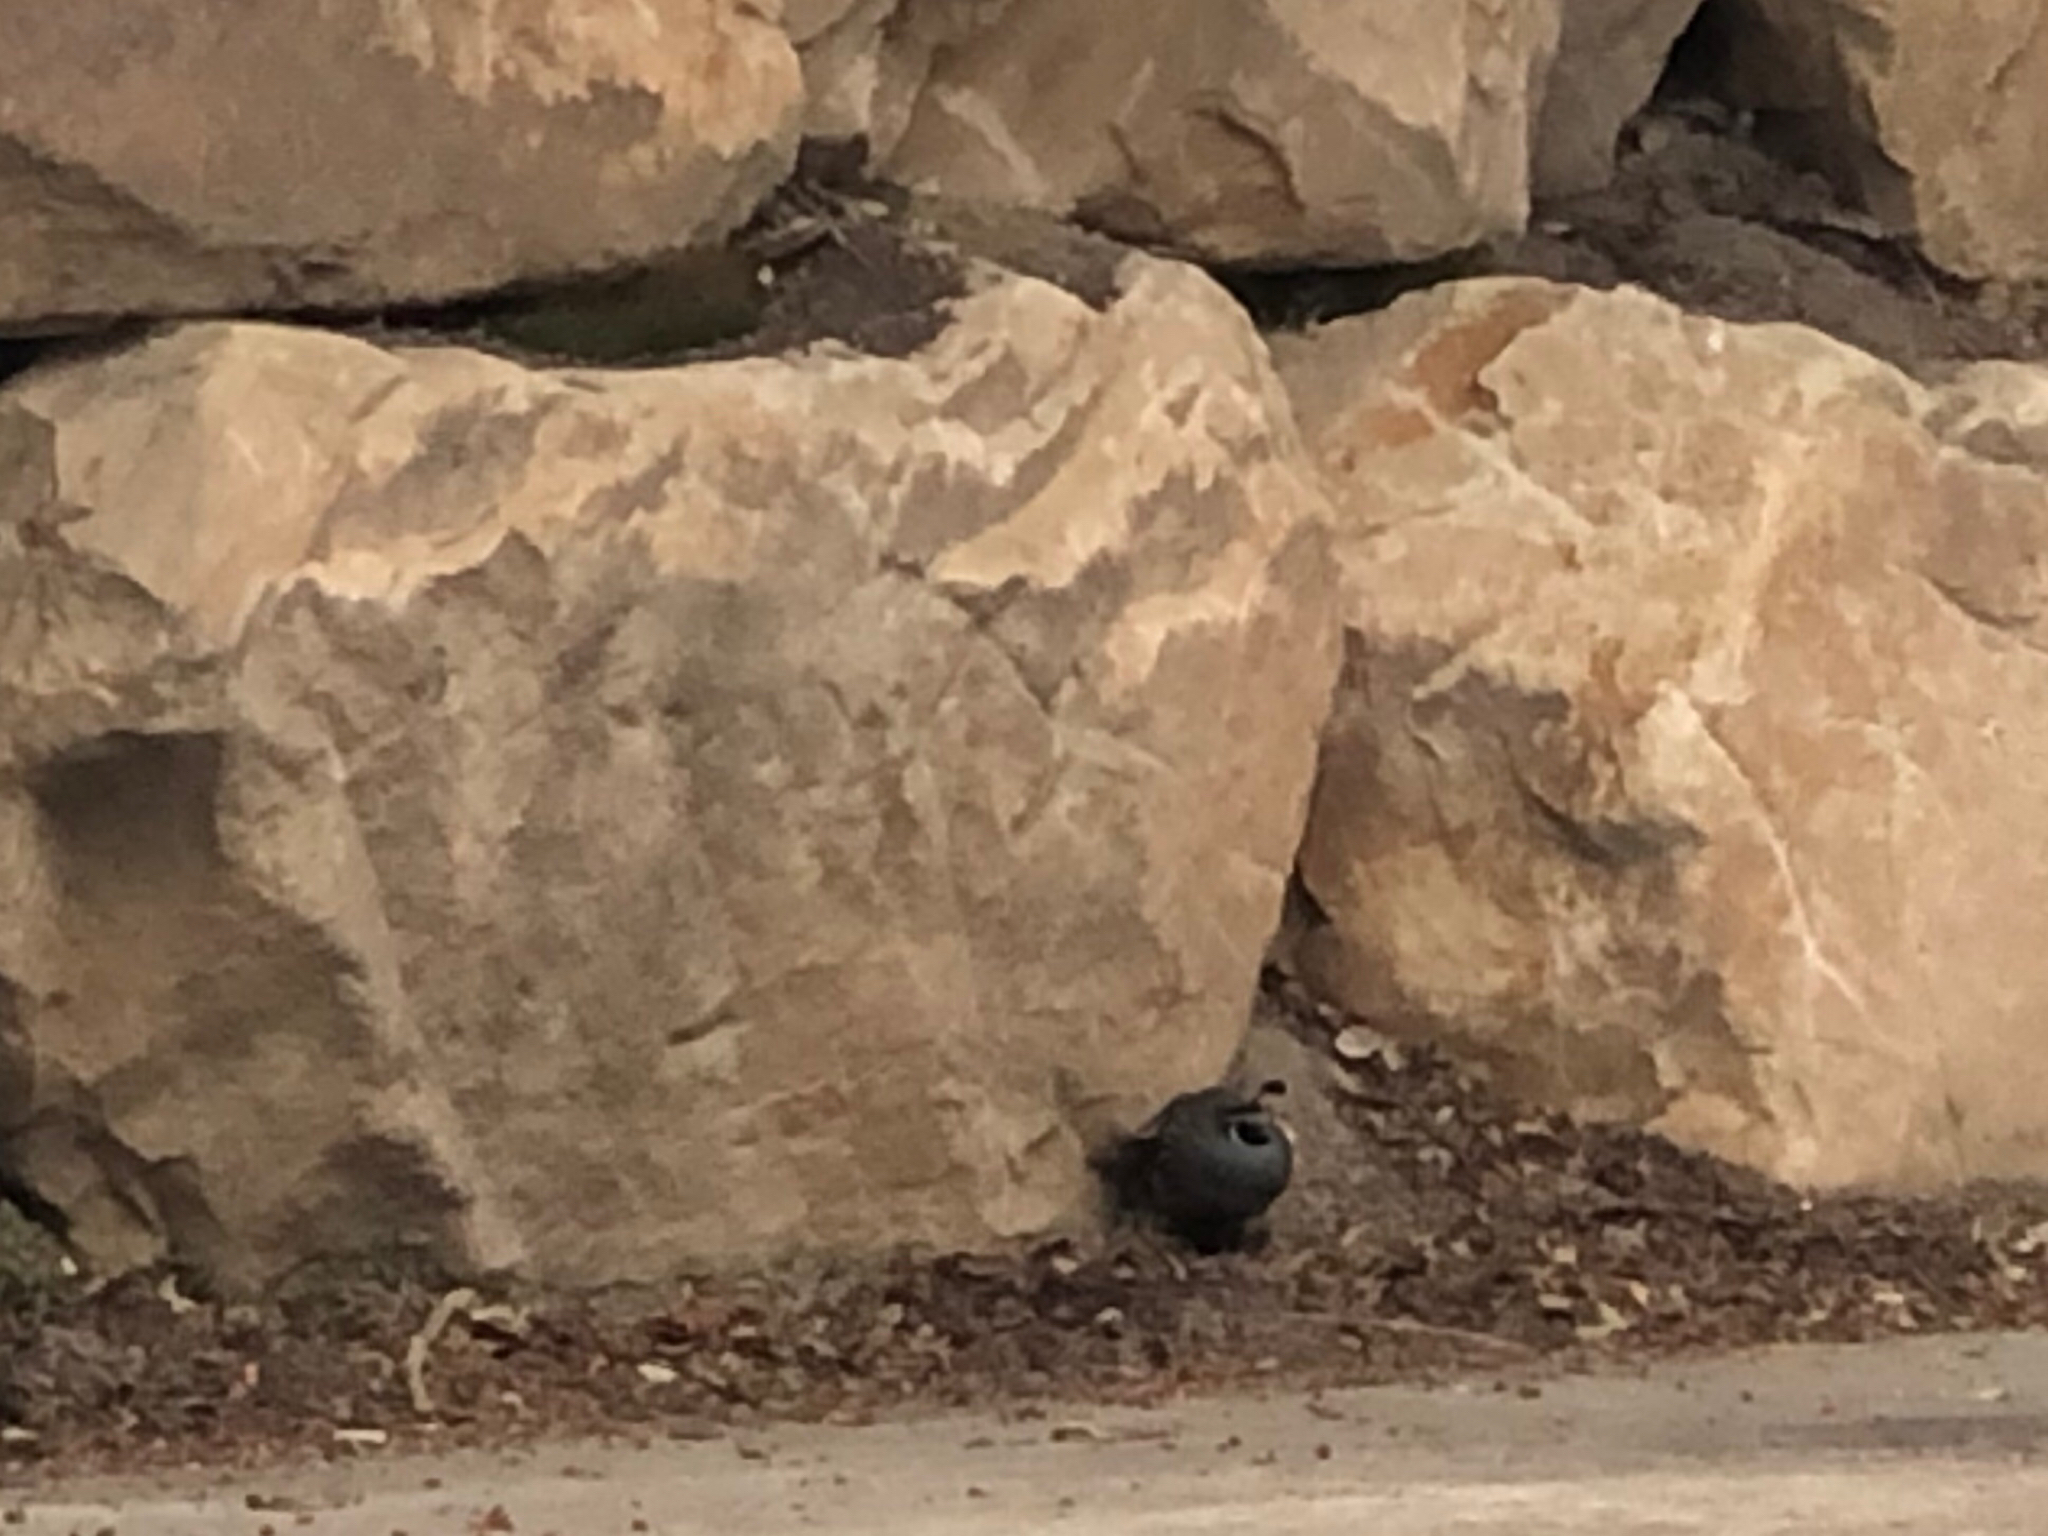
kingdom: Animalia
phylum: Chordata
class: Aves
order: Galliformes
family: Odontophoridae
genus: Callipepla
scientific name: Callipepla californica
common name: California quail
